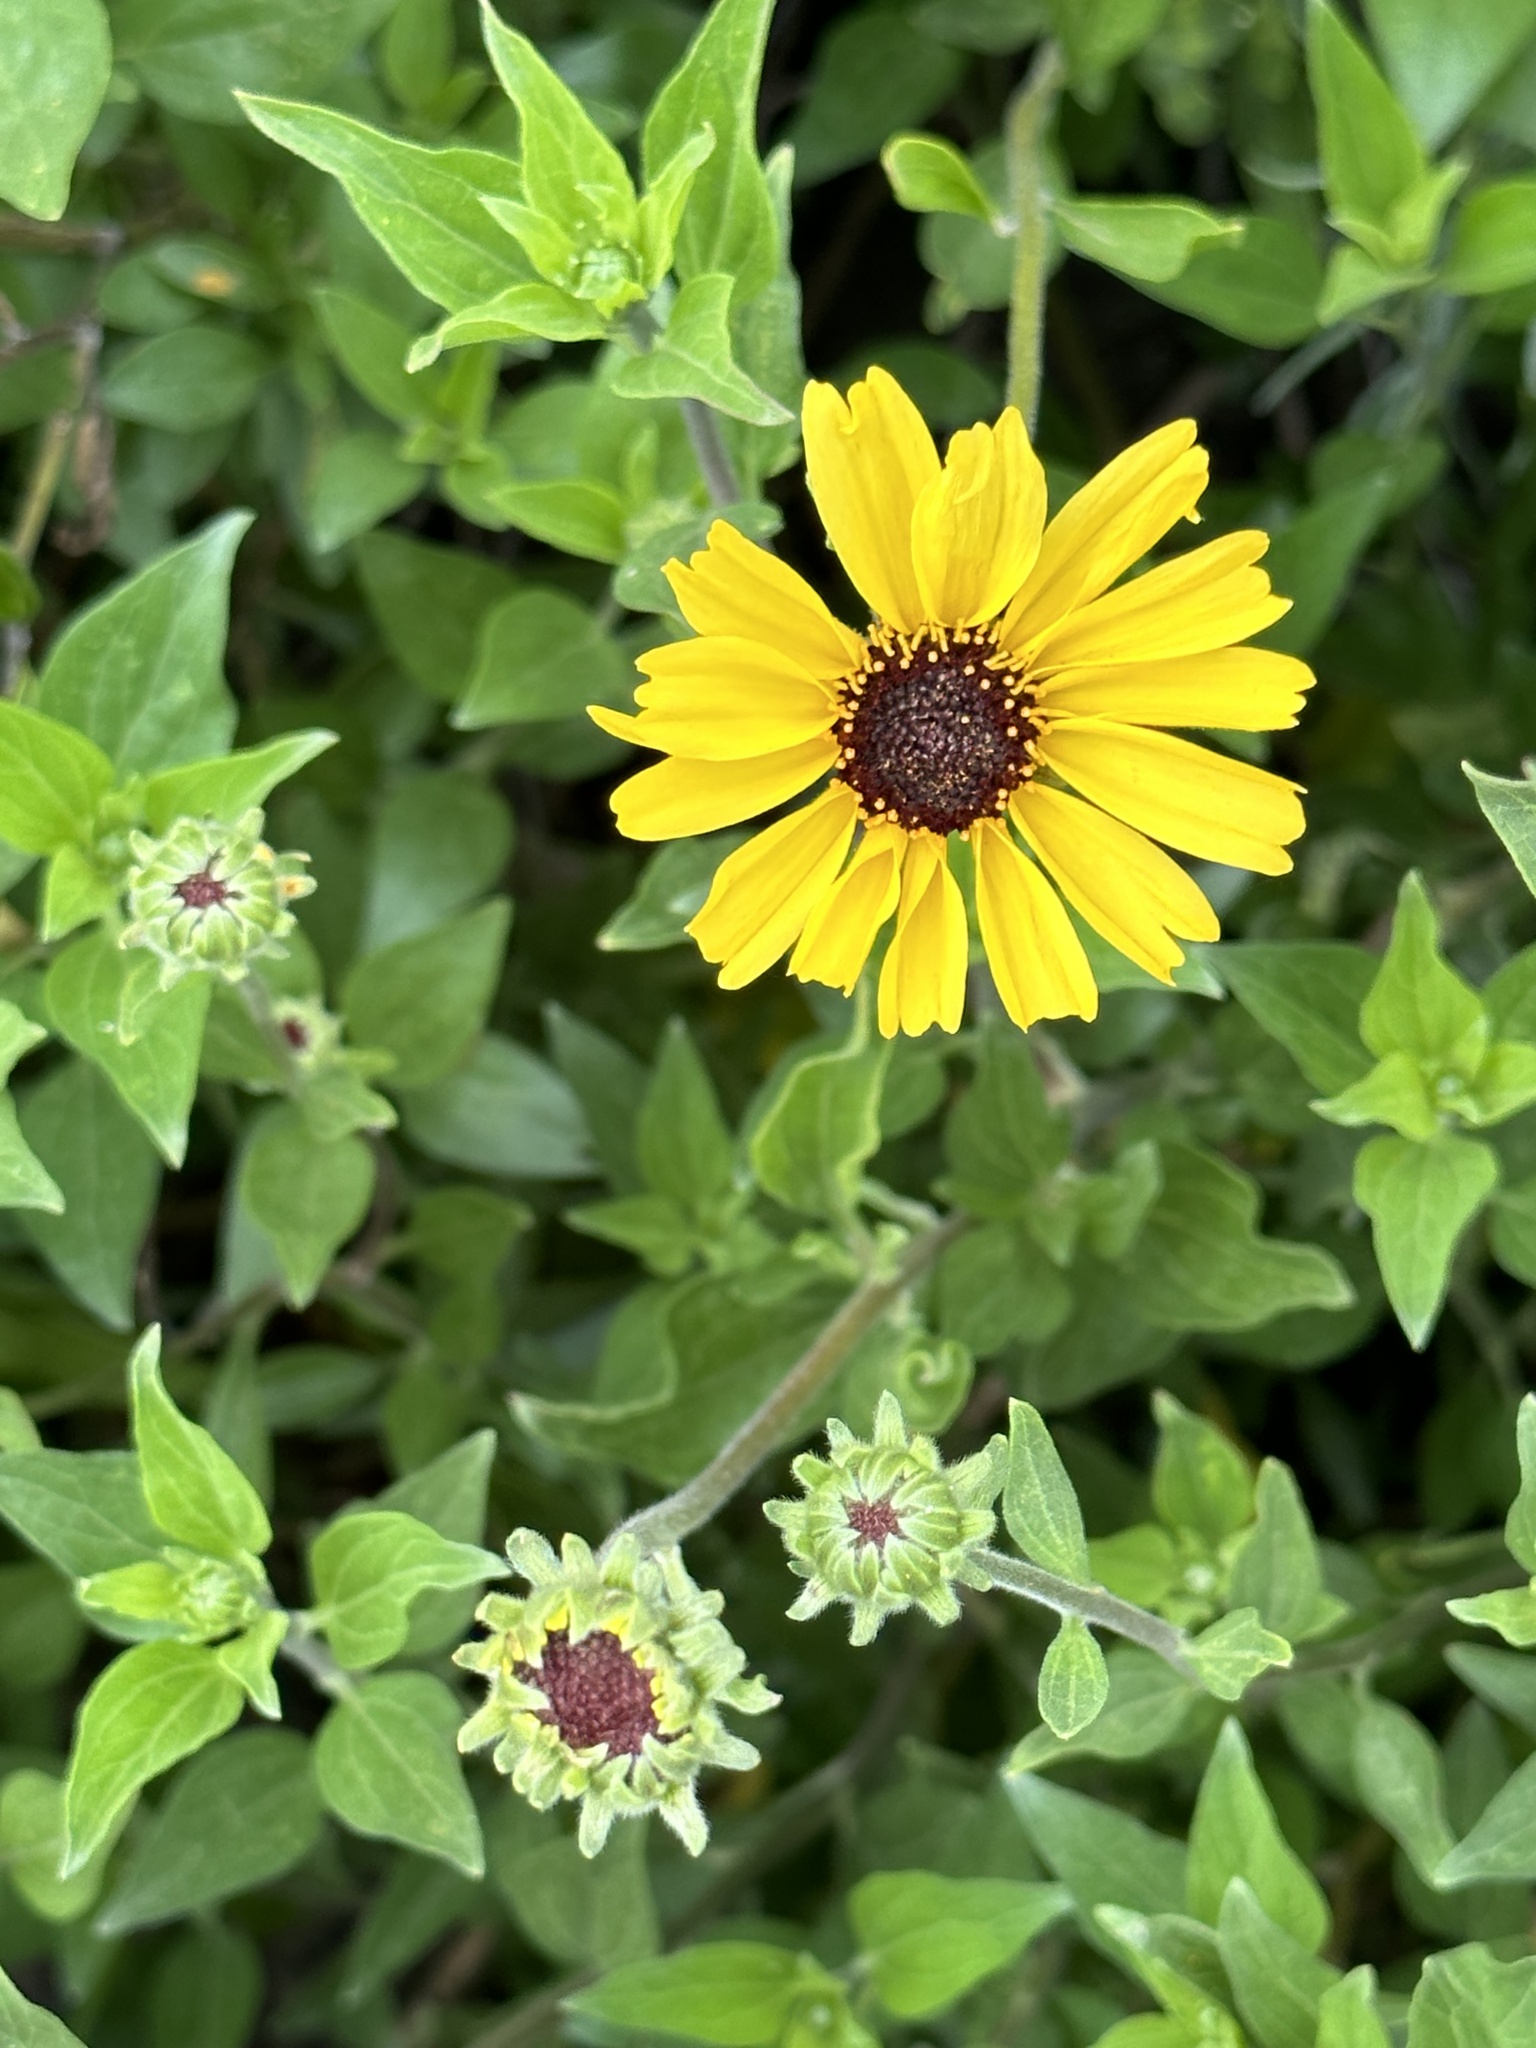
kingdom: Plantae
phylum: Tracheophyta
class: Magnoliopsida
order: Asterales
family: Asteraceae
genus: Encelia
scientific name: Encelia californica
